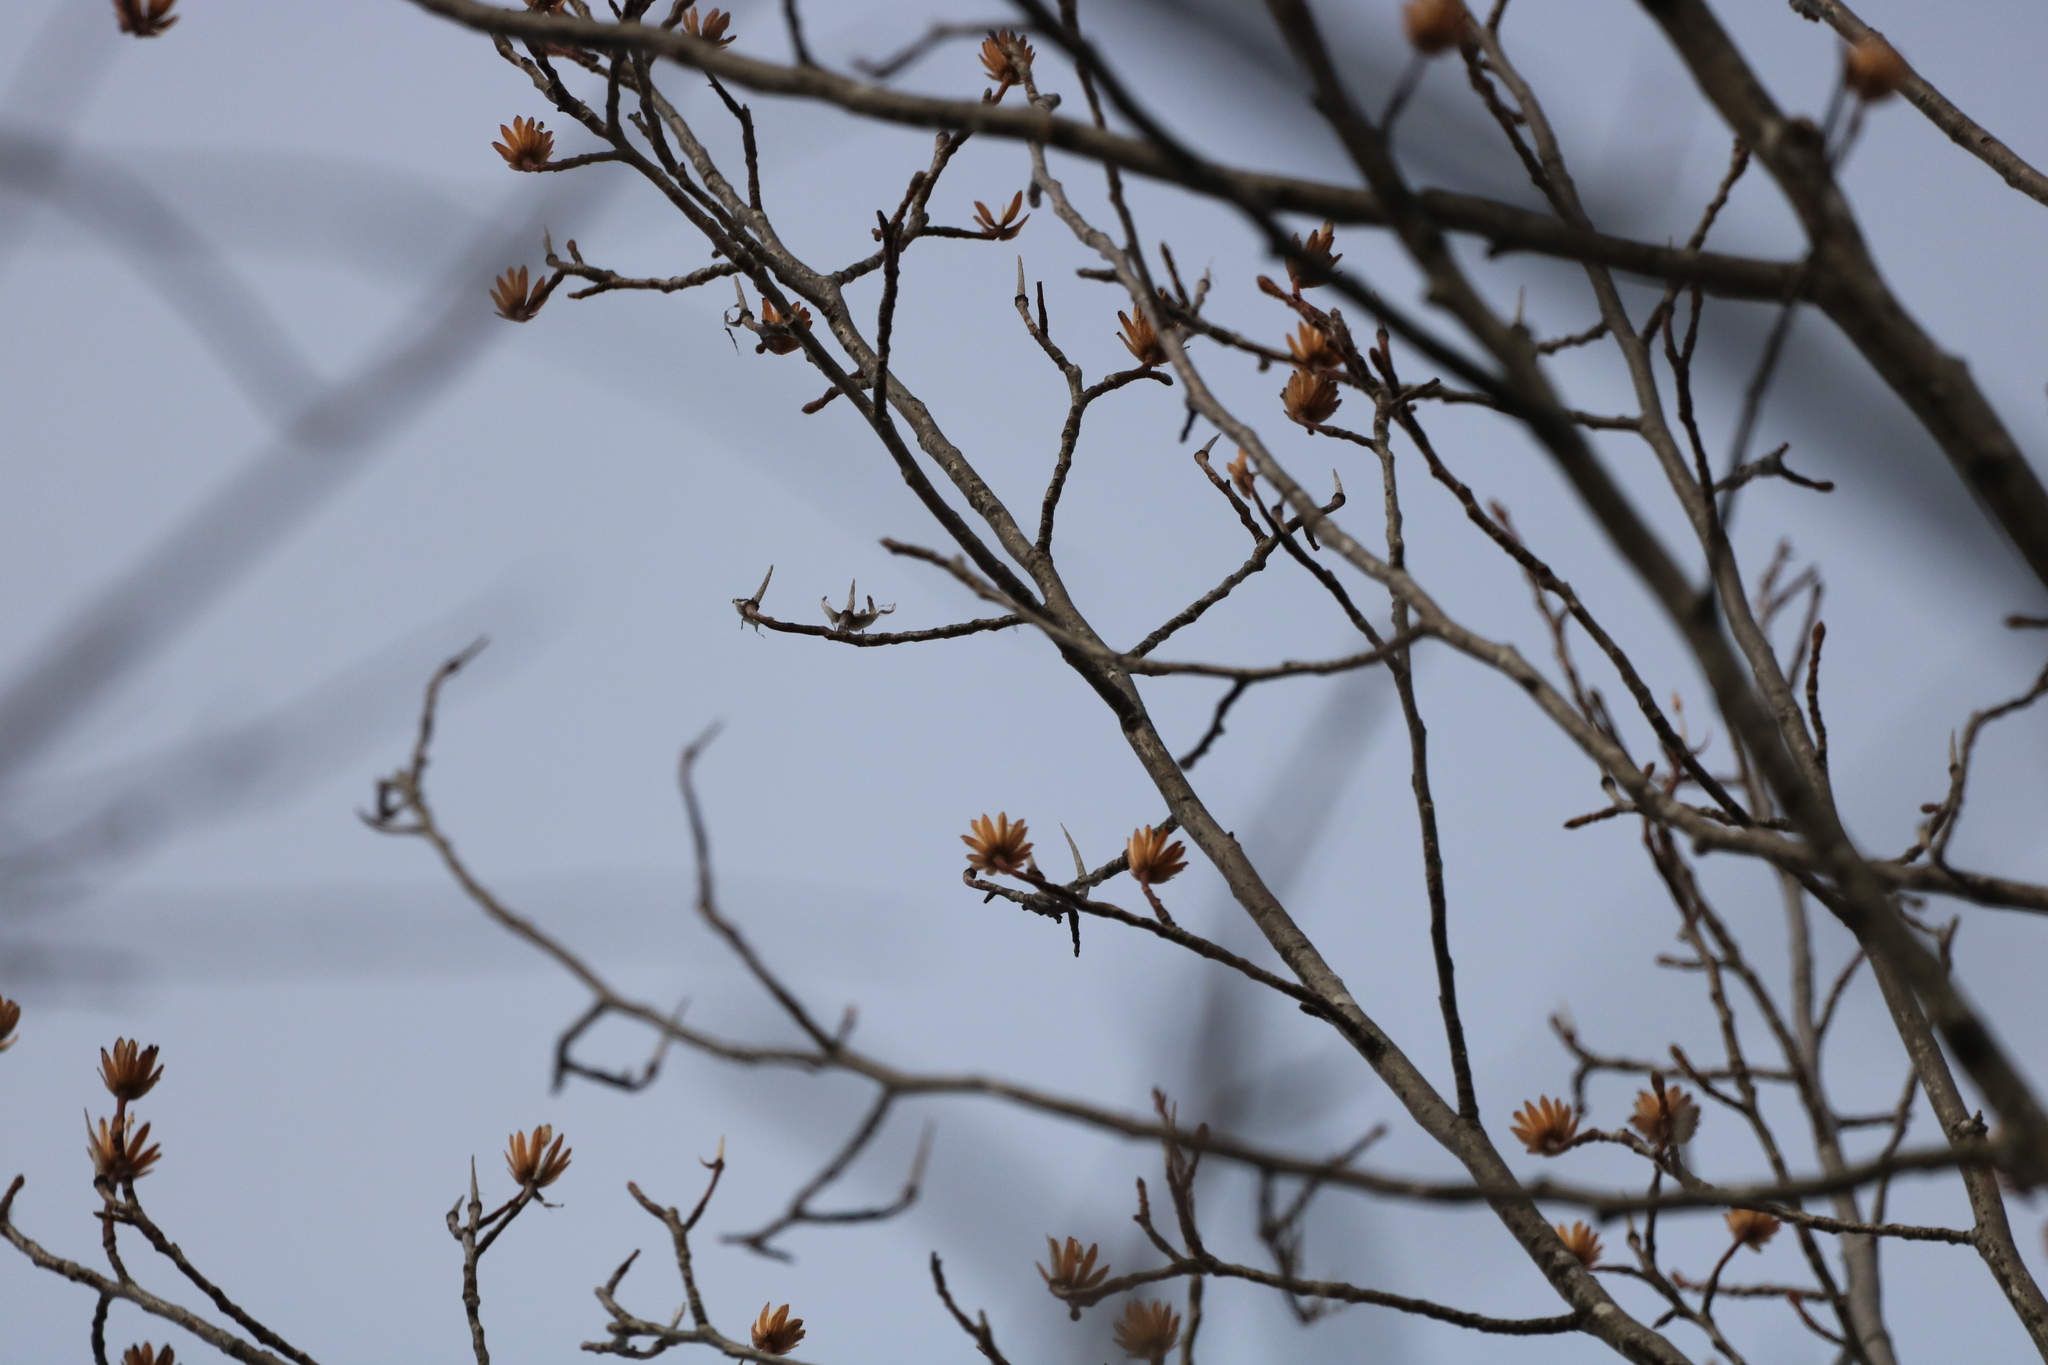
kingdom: Plantae
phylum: Tracheophyta
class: Magnoliopsida
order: Magnoliales
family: Magnoliaceae
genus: Liriodendron
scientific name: Liriodendron tulipifera
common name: Tulip tree
